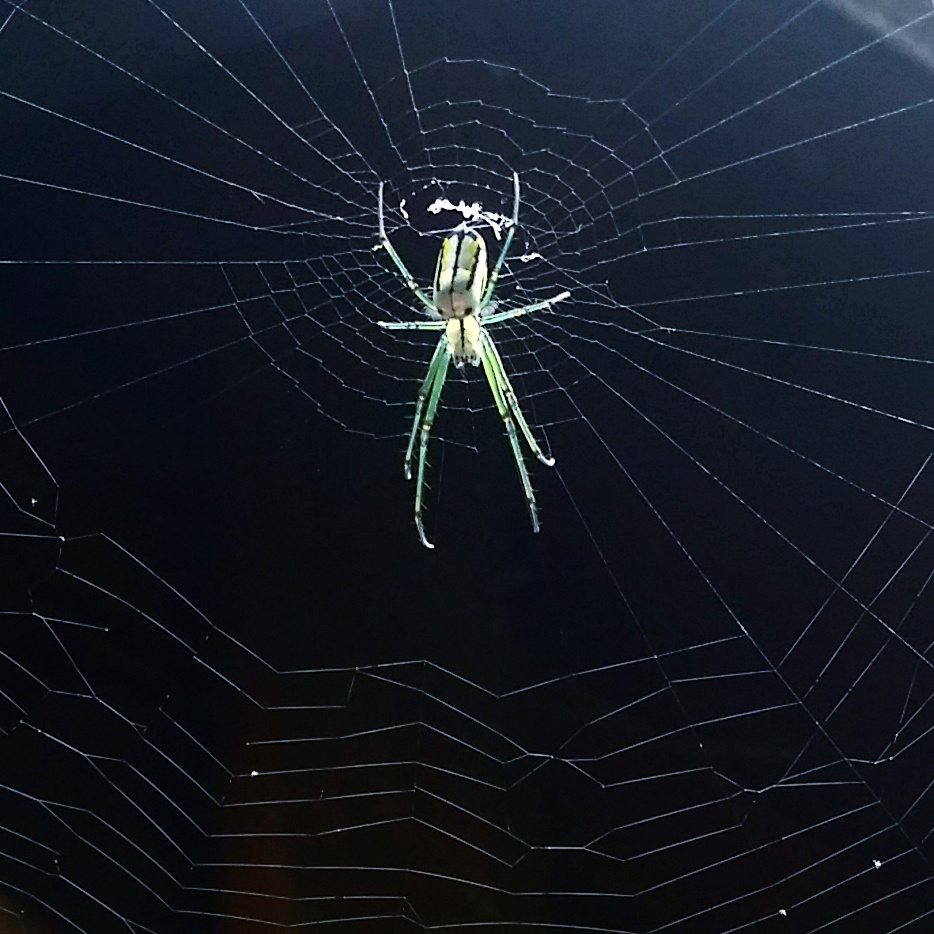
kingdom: Animalia
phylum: Arthropoda
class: Arachnida
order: Araneae
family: Tetragnathidae
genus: Leucauge
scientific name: Leucauge venusta
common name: Longjawed orb weavers
